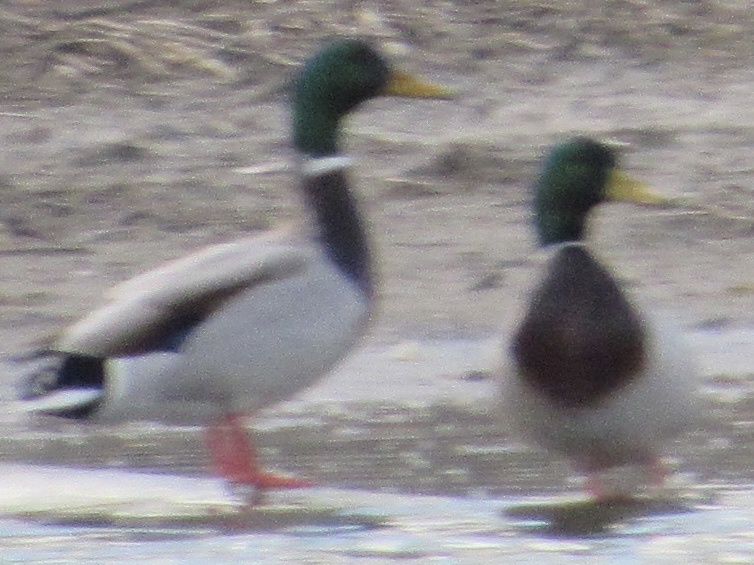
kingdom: Animalia
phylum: Chordata
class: Aves
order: Anseriformes
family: Anatidae
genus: Anas
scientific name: Anas platyrhynchos
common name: Mallard
